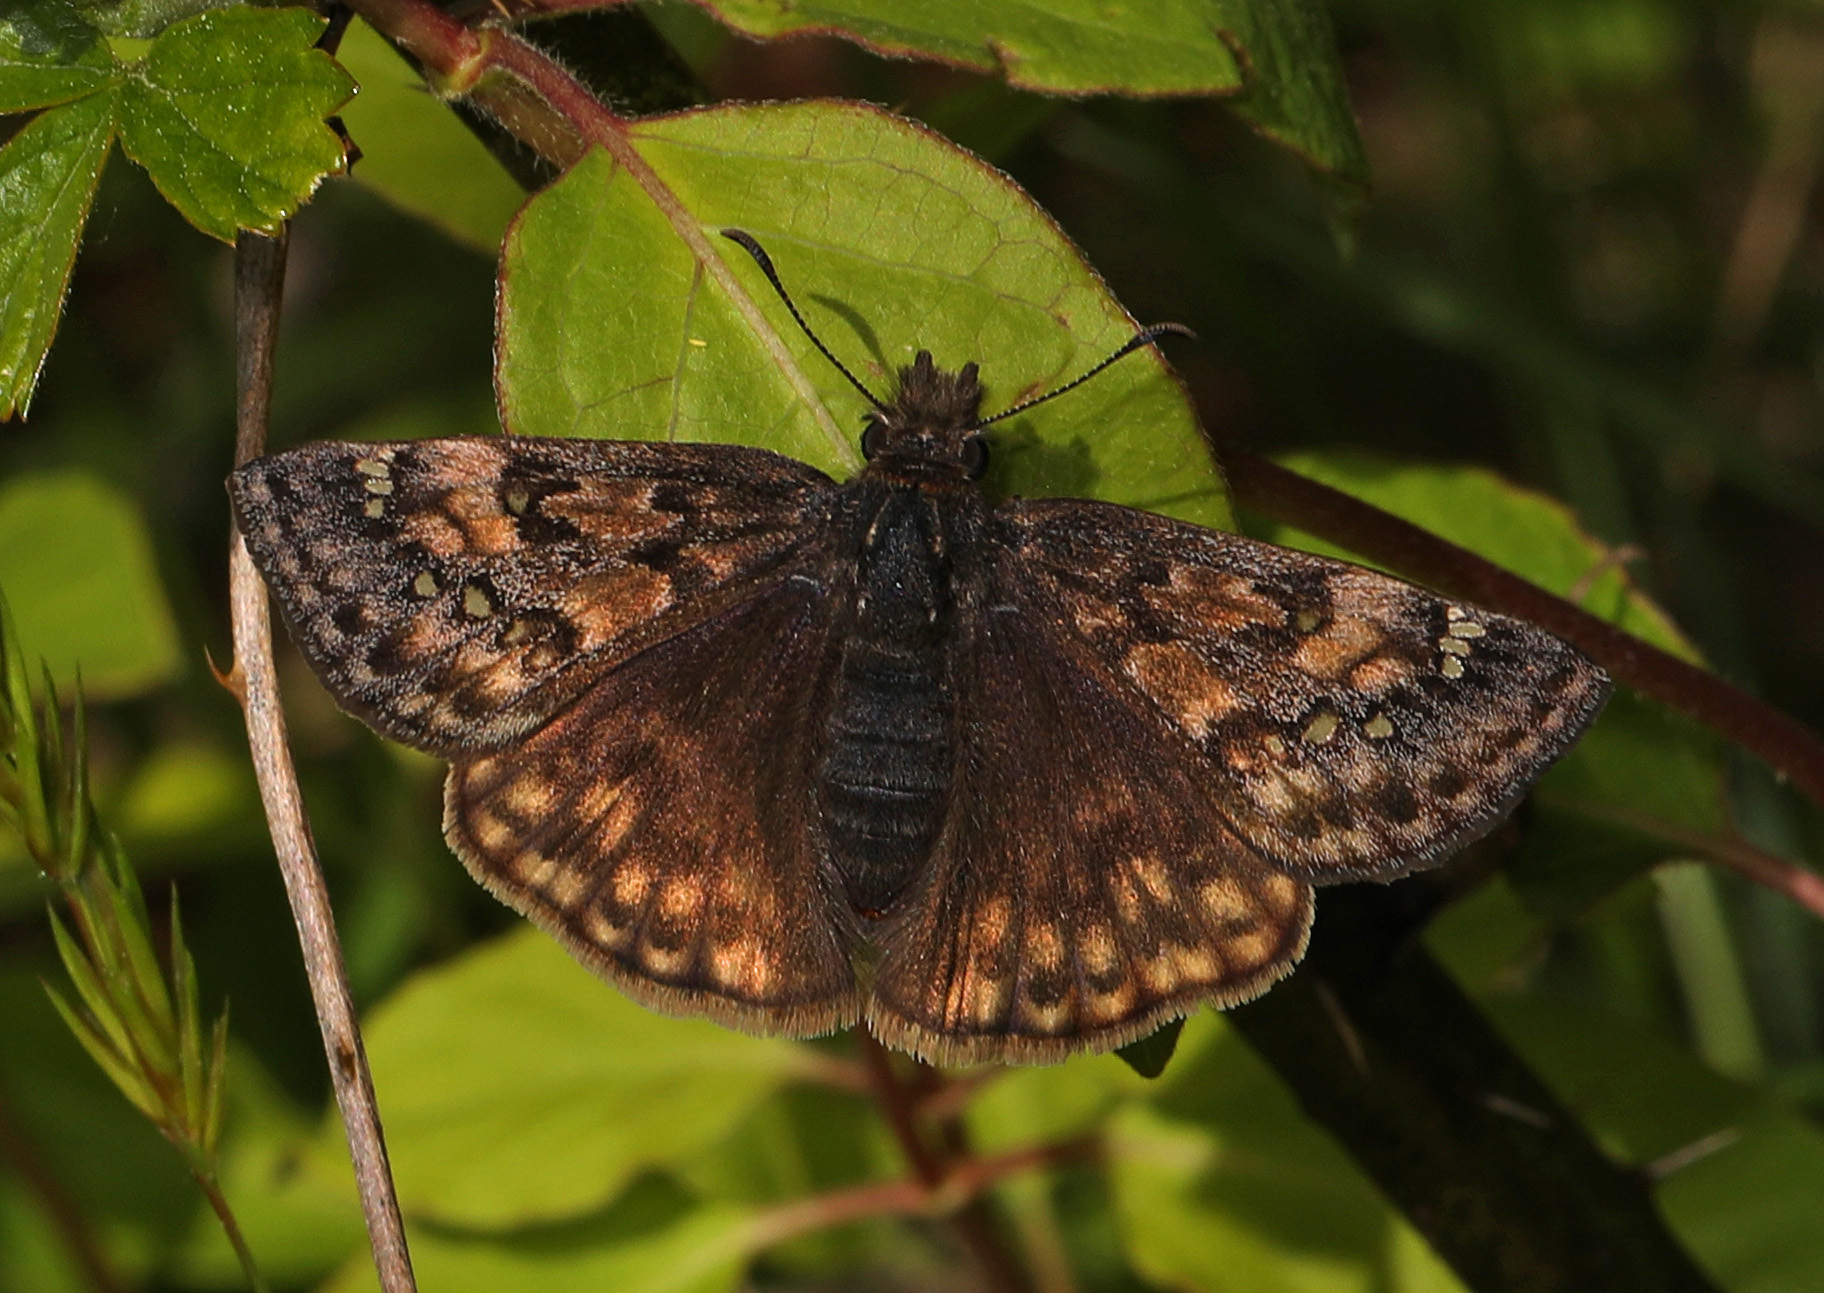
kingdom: Animalia
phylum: Arthropoda
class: Insecta
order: Lepidoptera
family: Hesperiidae
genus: Erynnis
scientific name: Erynnis juvenalis
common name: Juvenal's duskywing
